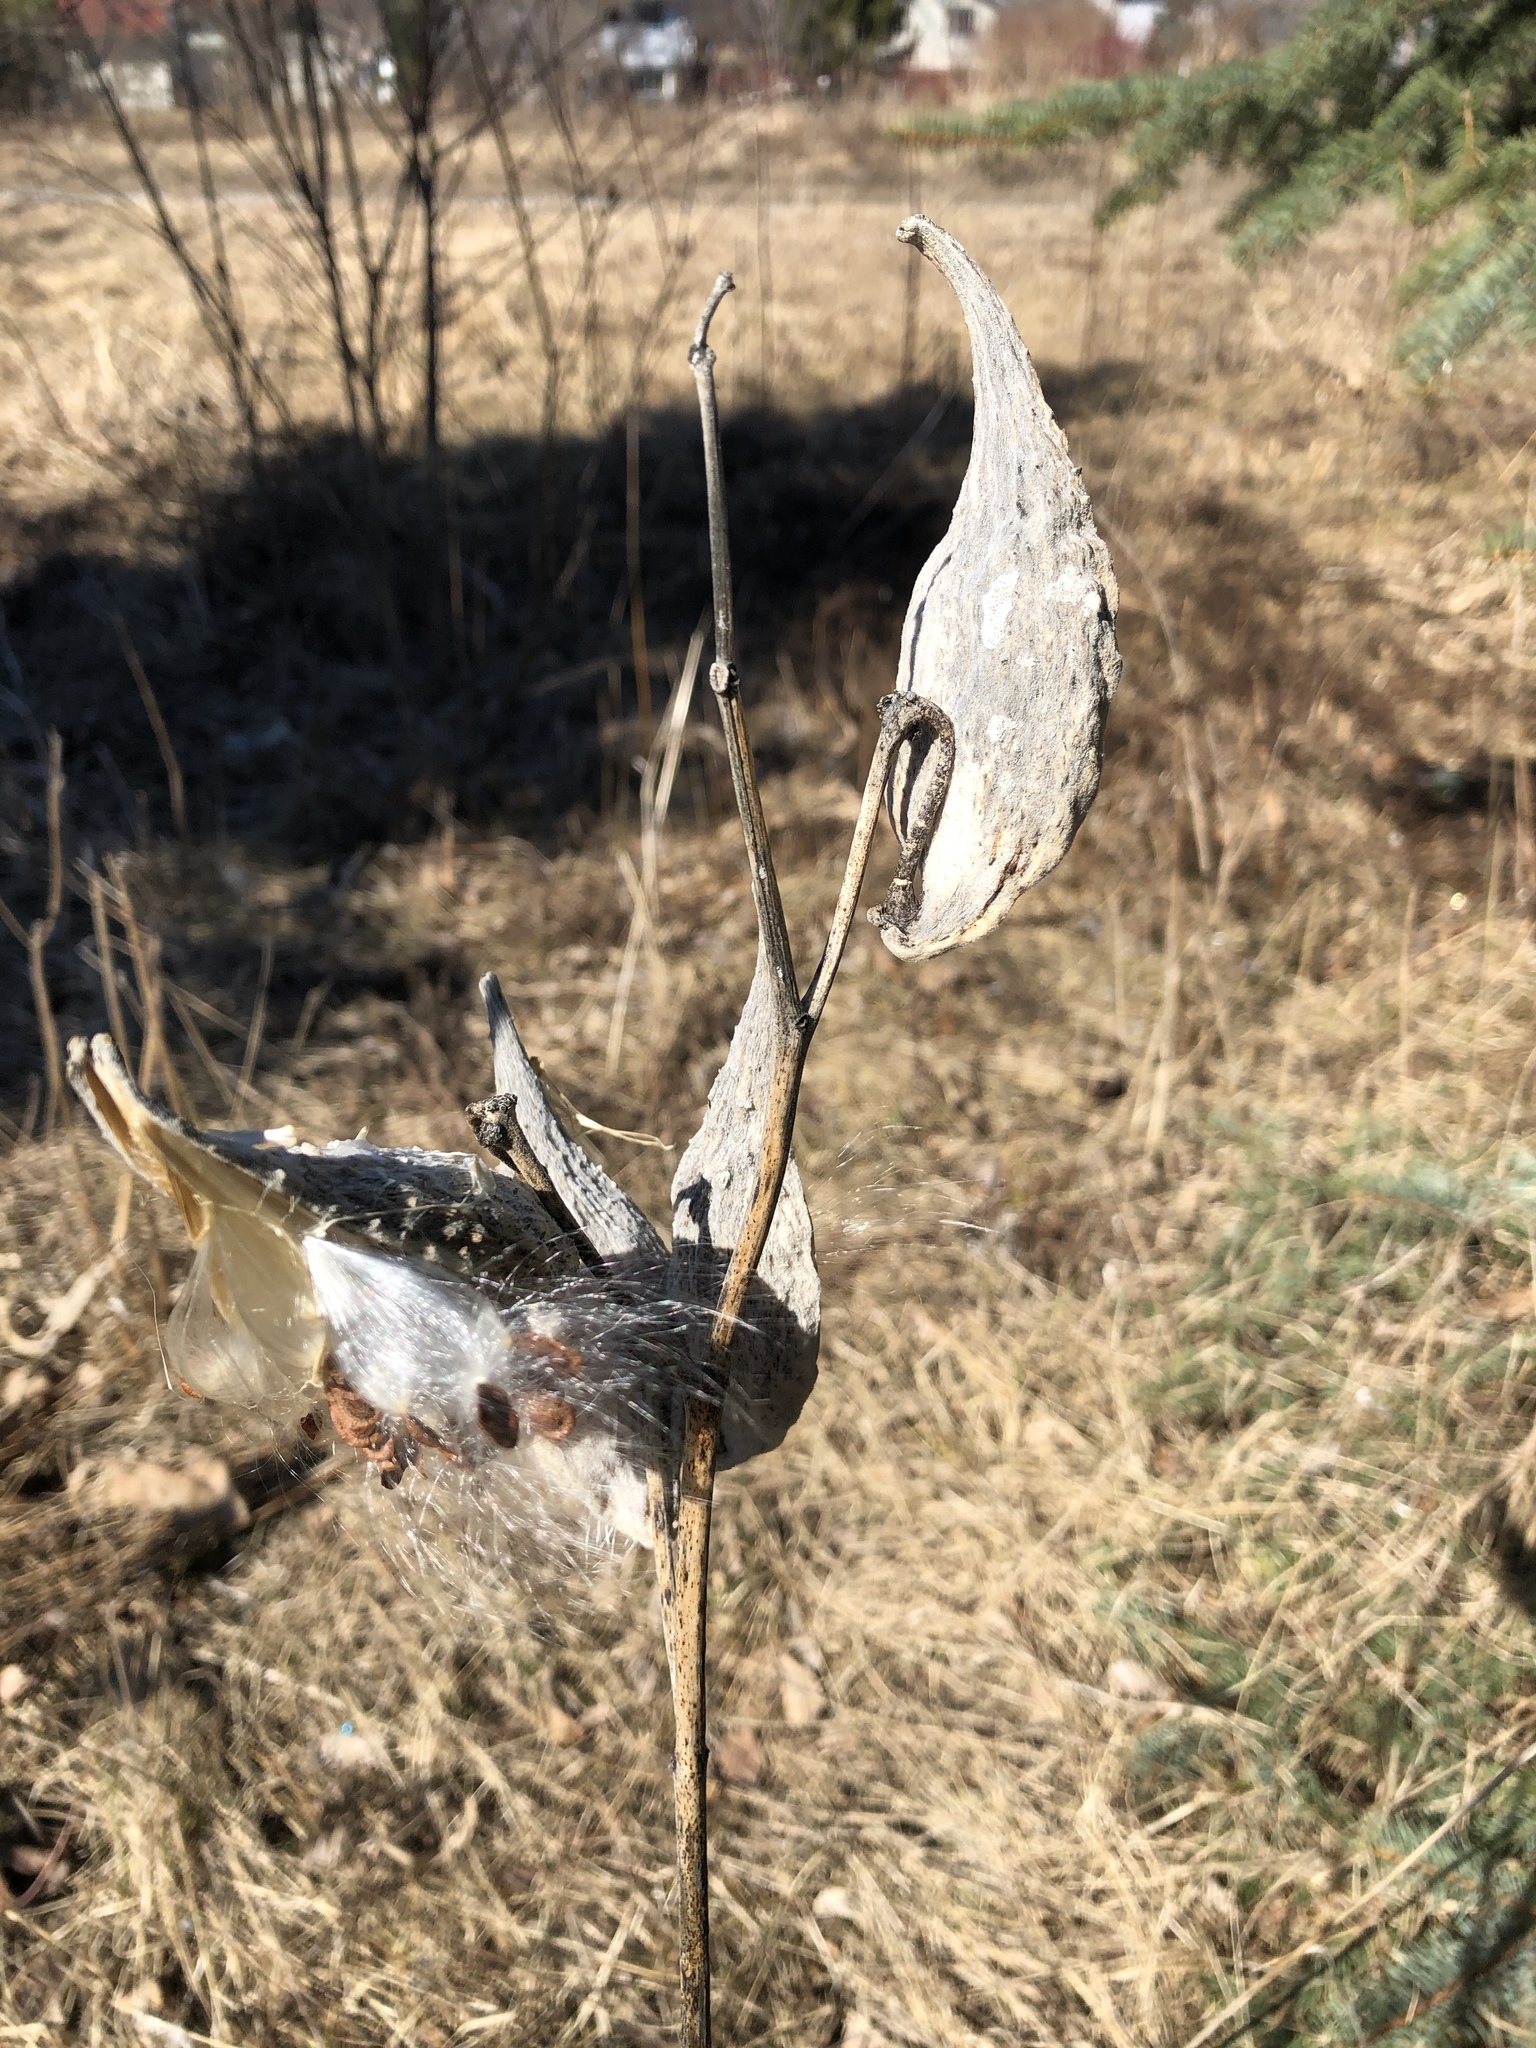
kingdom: Plantae
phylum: Tracheophyta
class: Magnoliopsida
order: Gentianales
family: Apocynaceae
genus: Asclepias
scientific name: Asclepias syriaca
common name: Common milkweed
